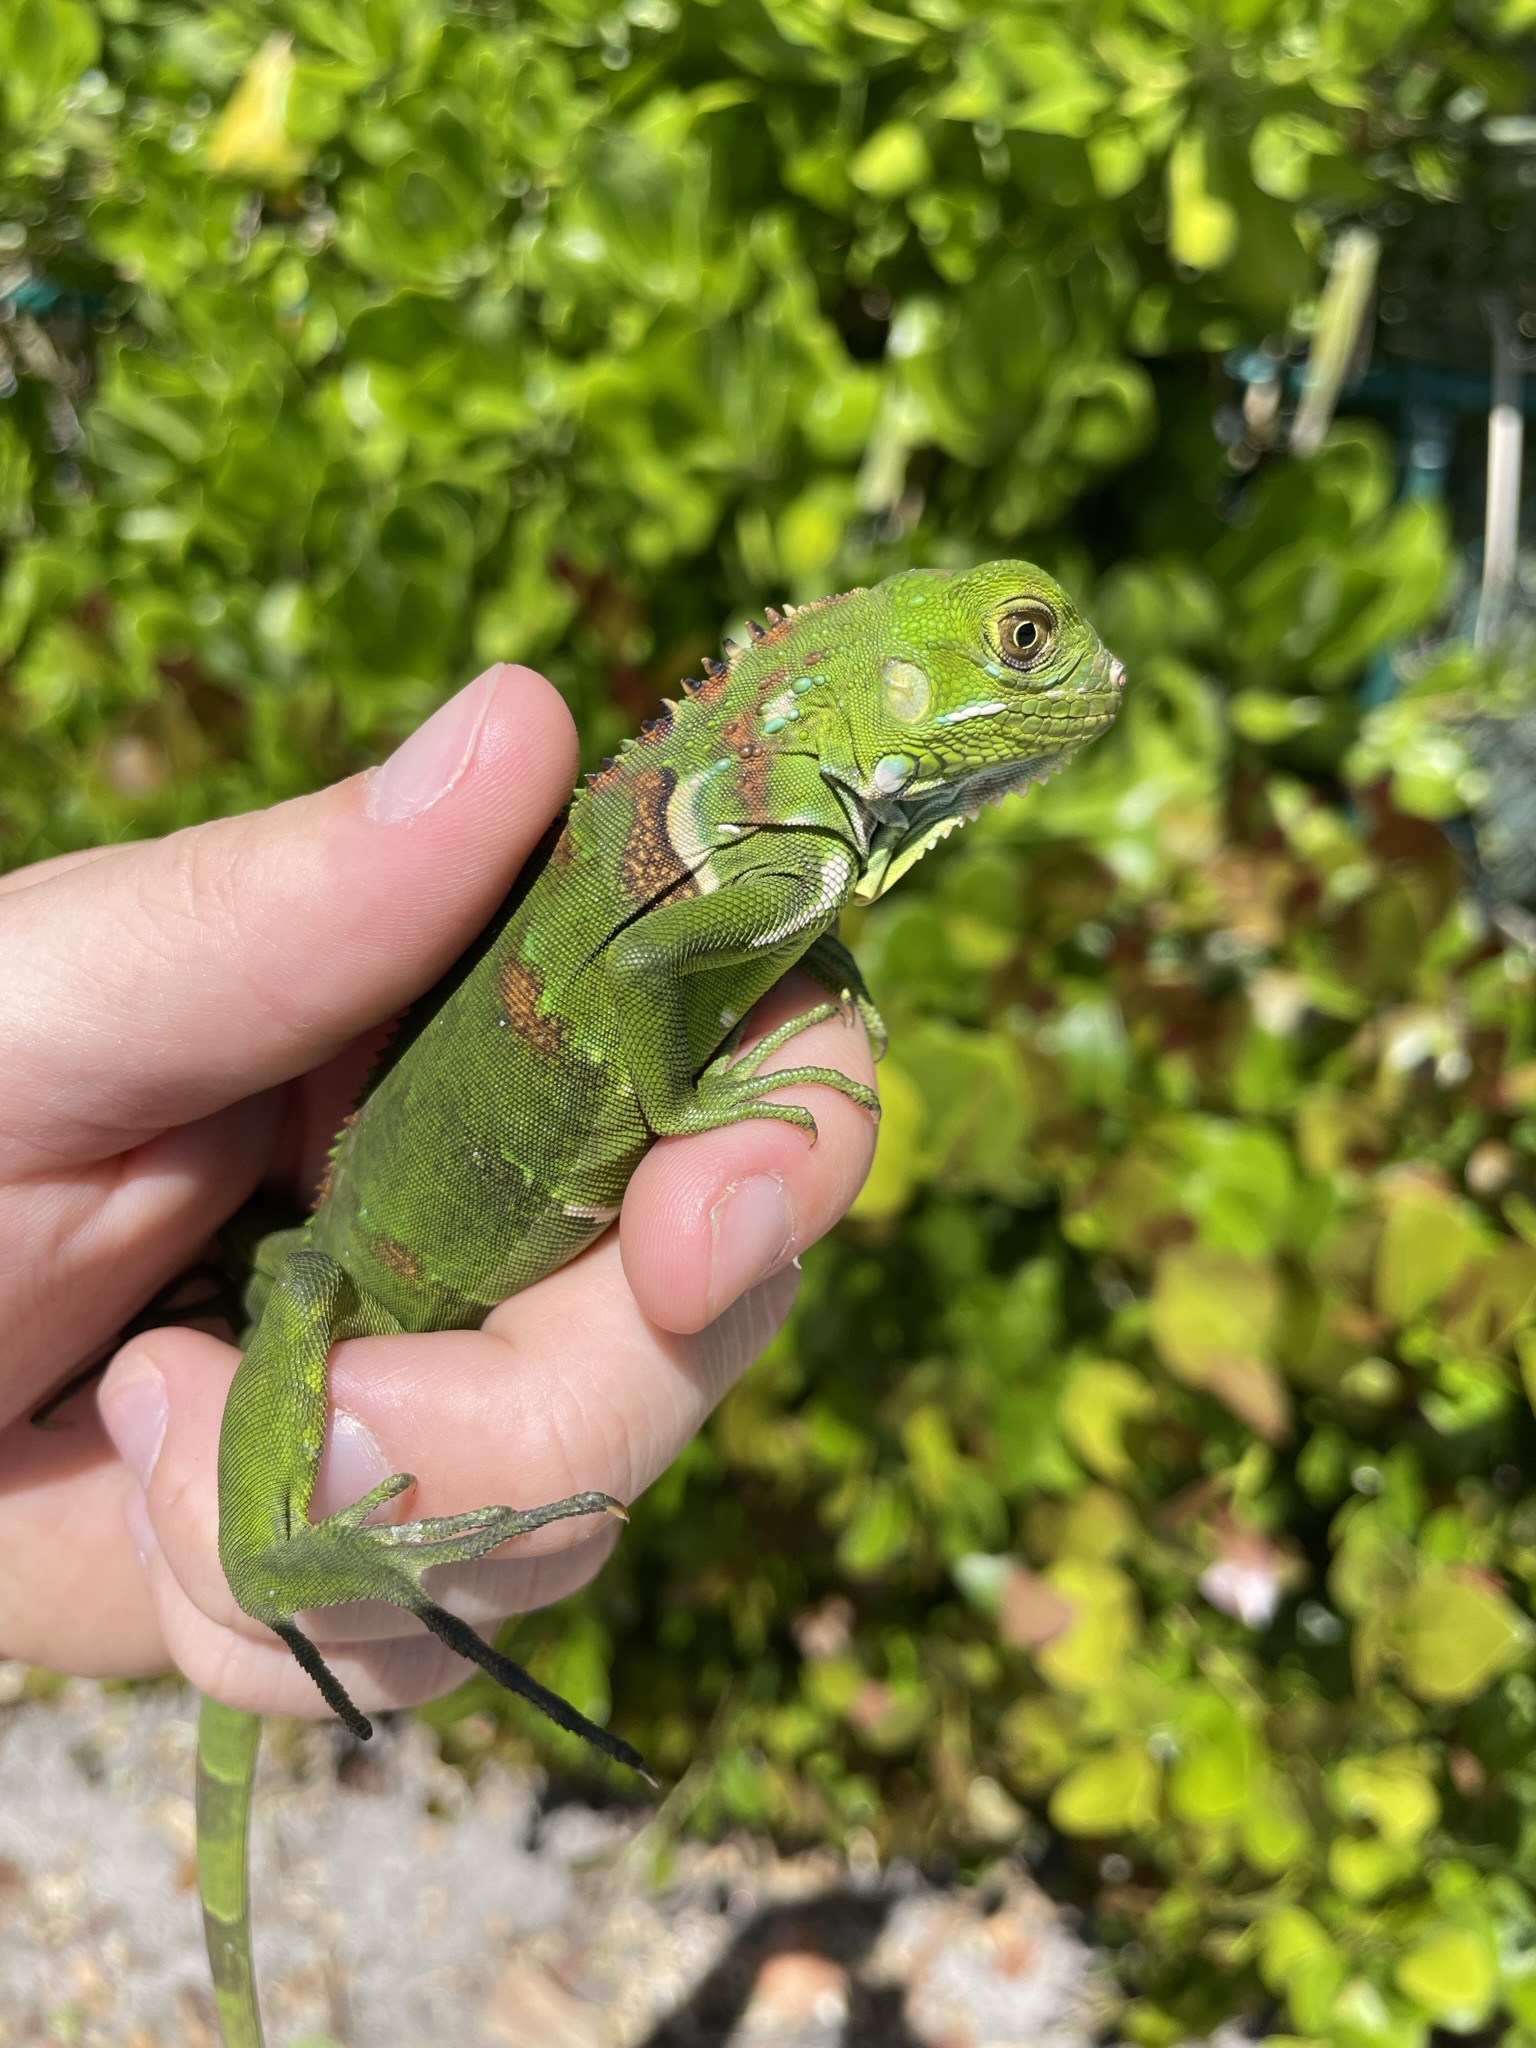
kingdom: Animalia
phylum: Chordata
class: Squamata
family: Iguanidae
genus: Iguana
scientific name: Iguana iguana
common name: Green iguana
